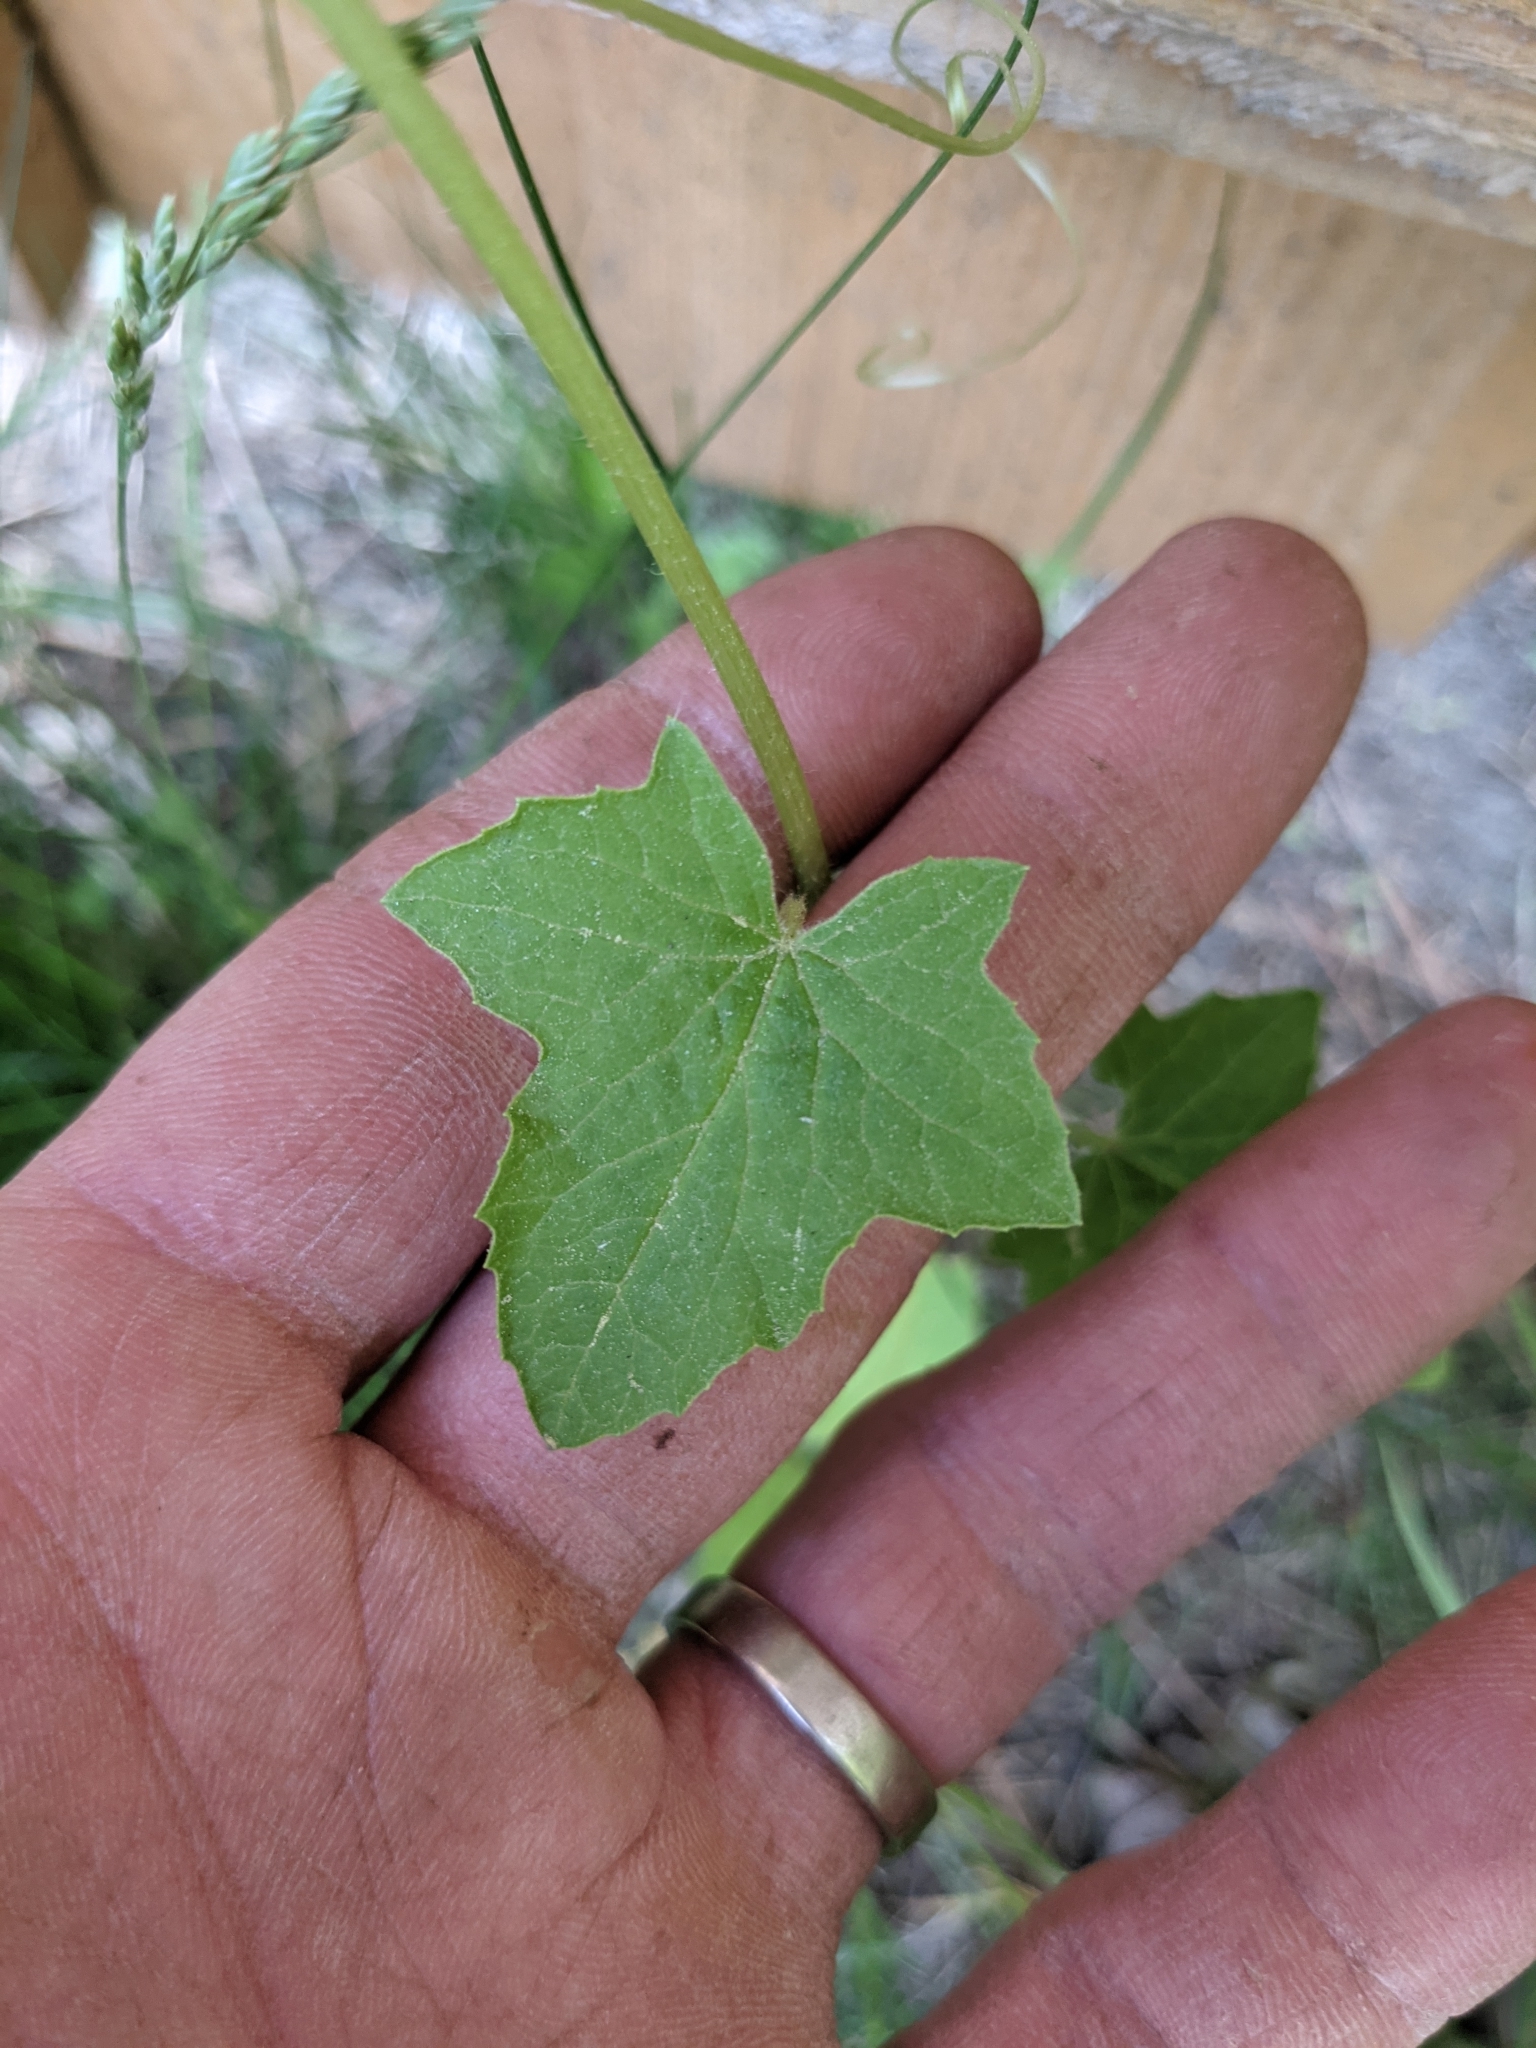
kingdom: Plantae
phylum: Tracheophyta
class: Magnoliopsida
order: Cucurbitales
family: Cucurbitaceae
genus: Echinocystis
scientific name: Echinocystis lobata
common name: Wild cucumber
